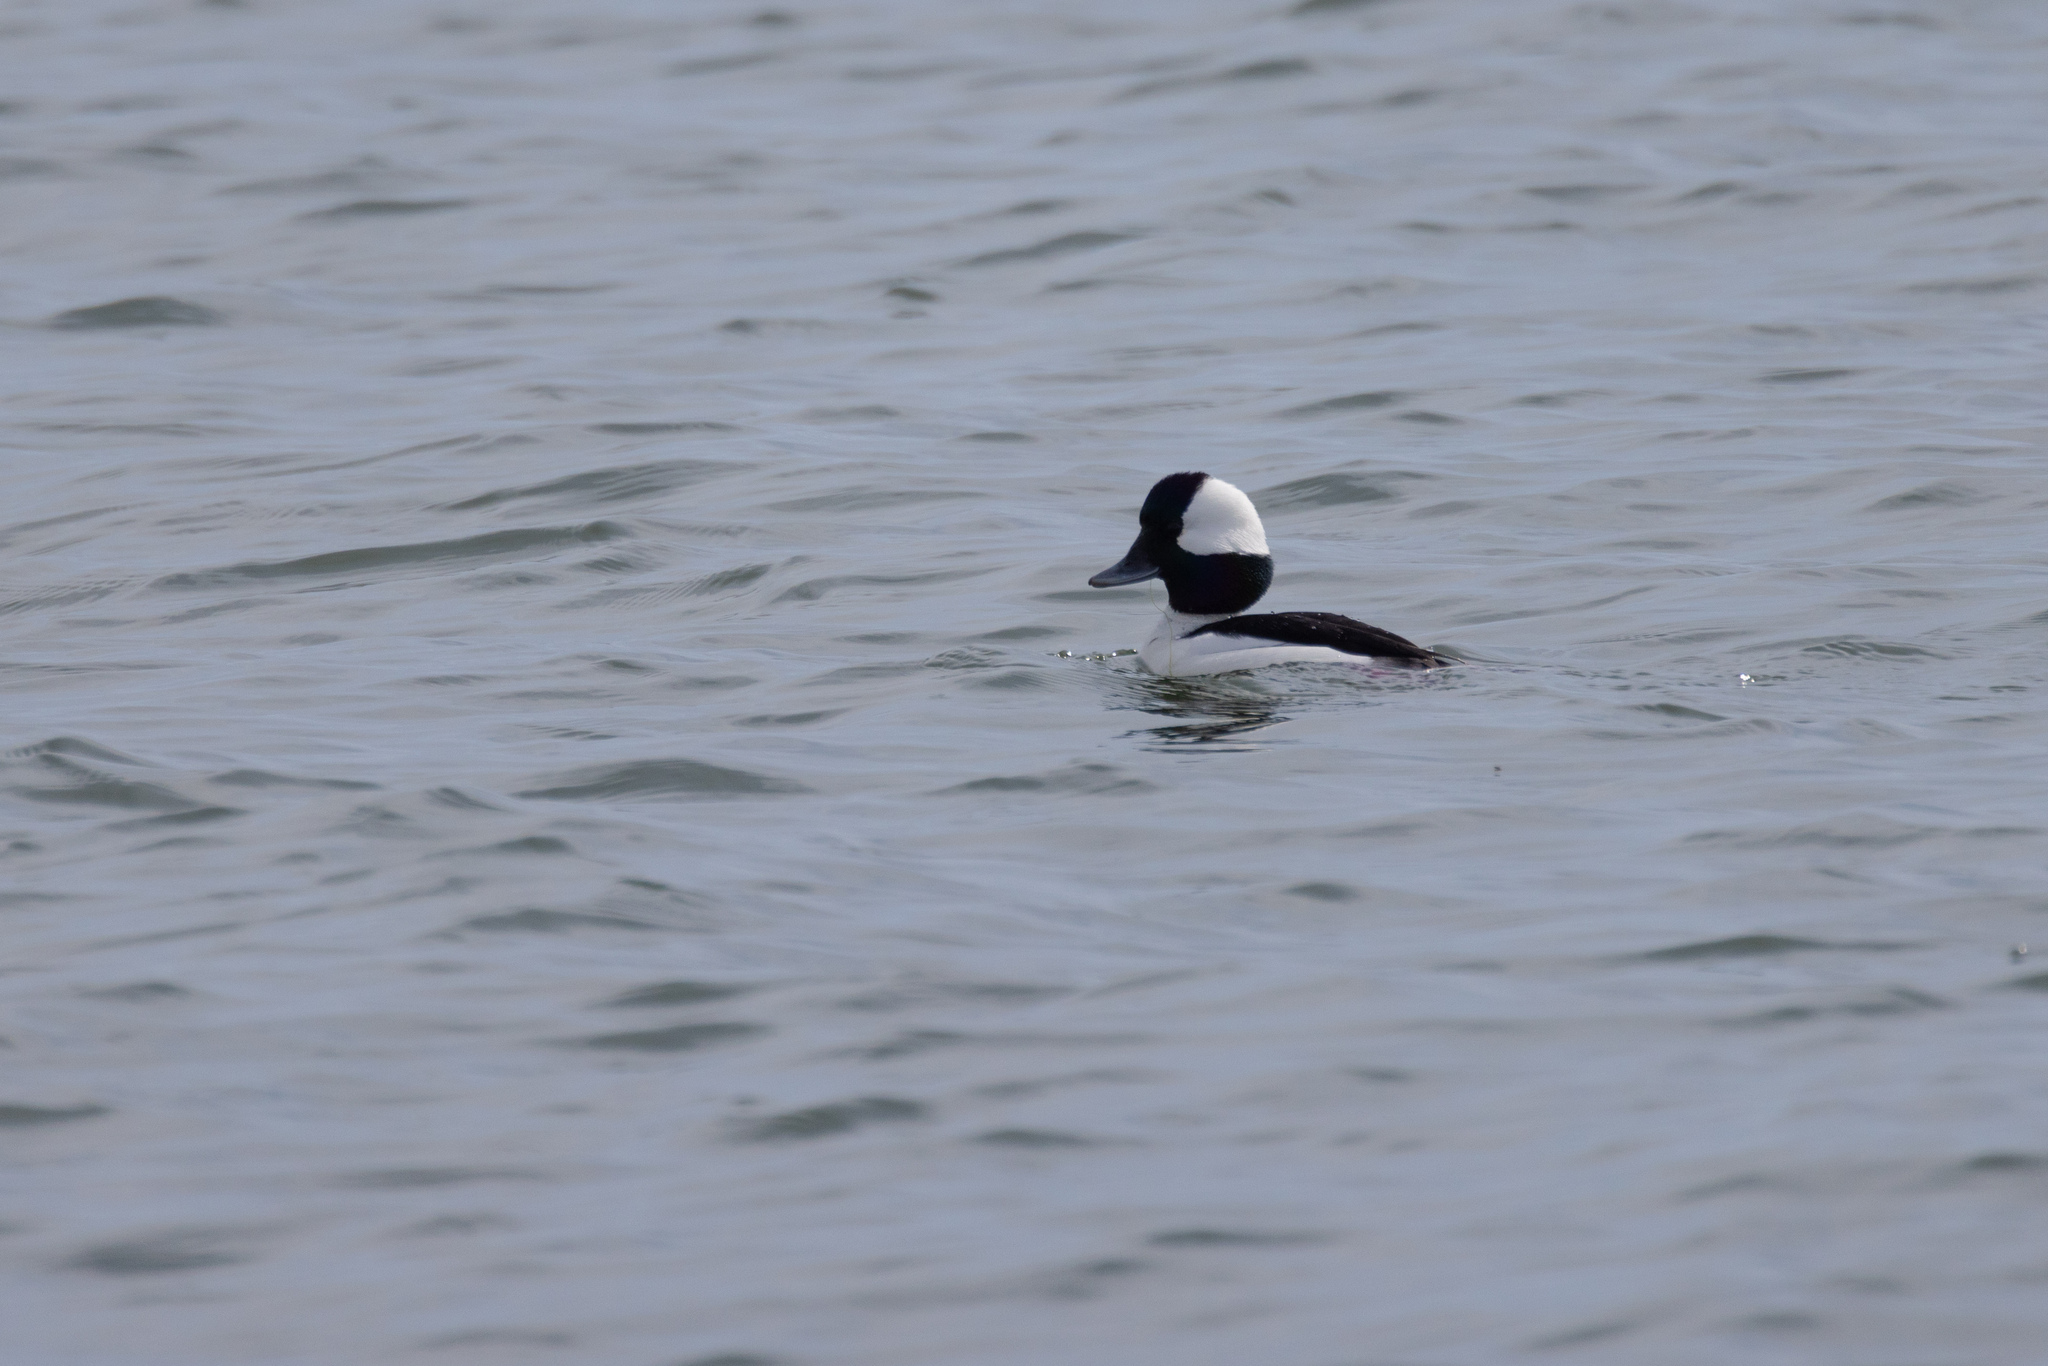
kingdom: Animalia
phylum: Chordata
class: Aves
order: Anseriformes
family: Anatidae
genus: Bucephala
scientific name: Bucephala albeola
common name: Bufflehead
